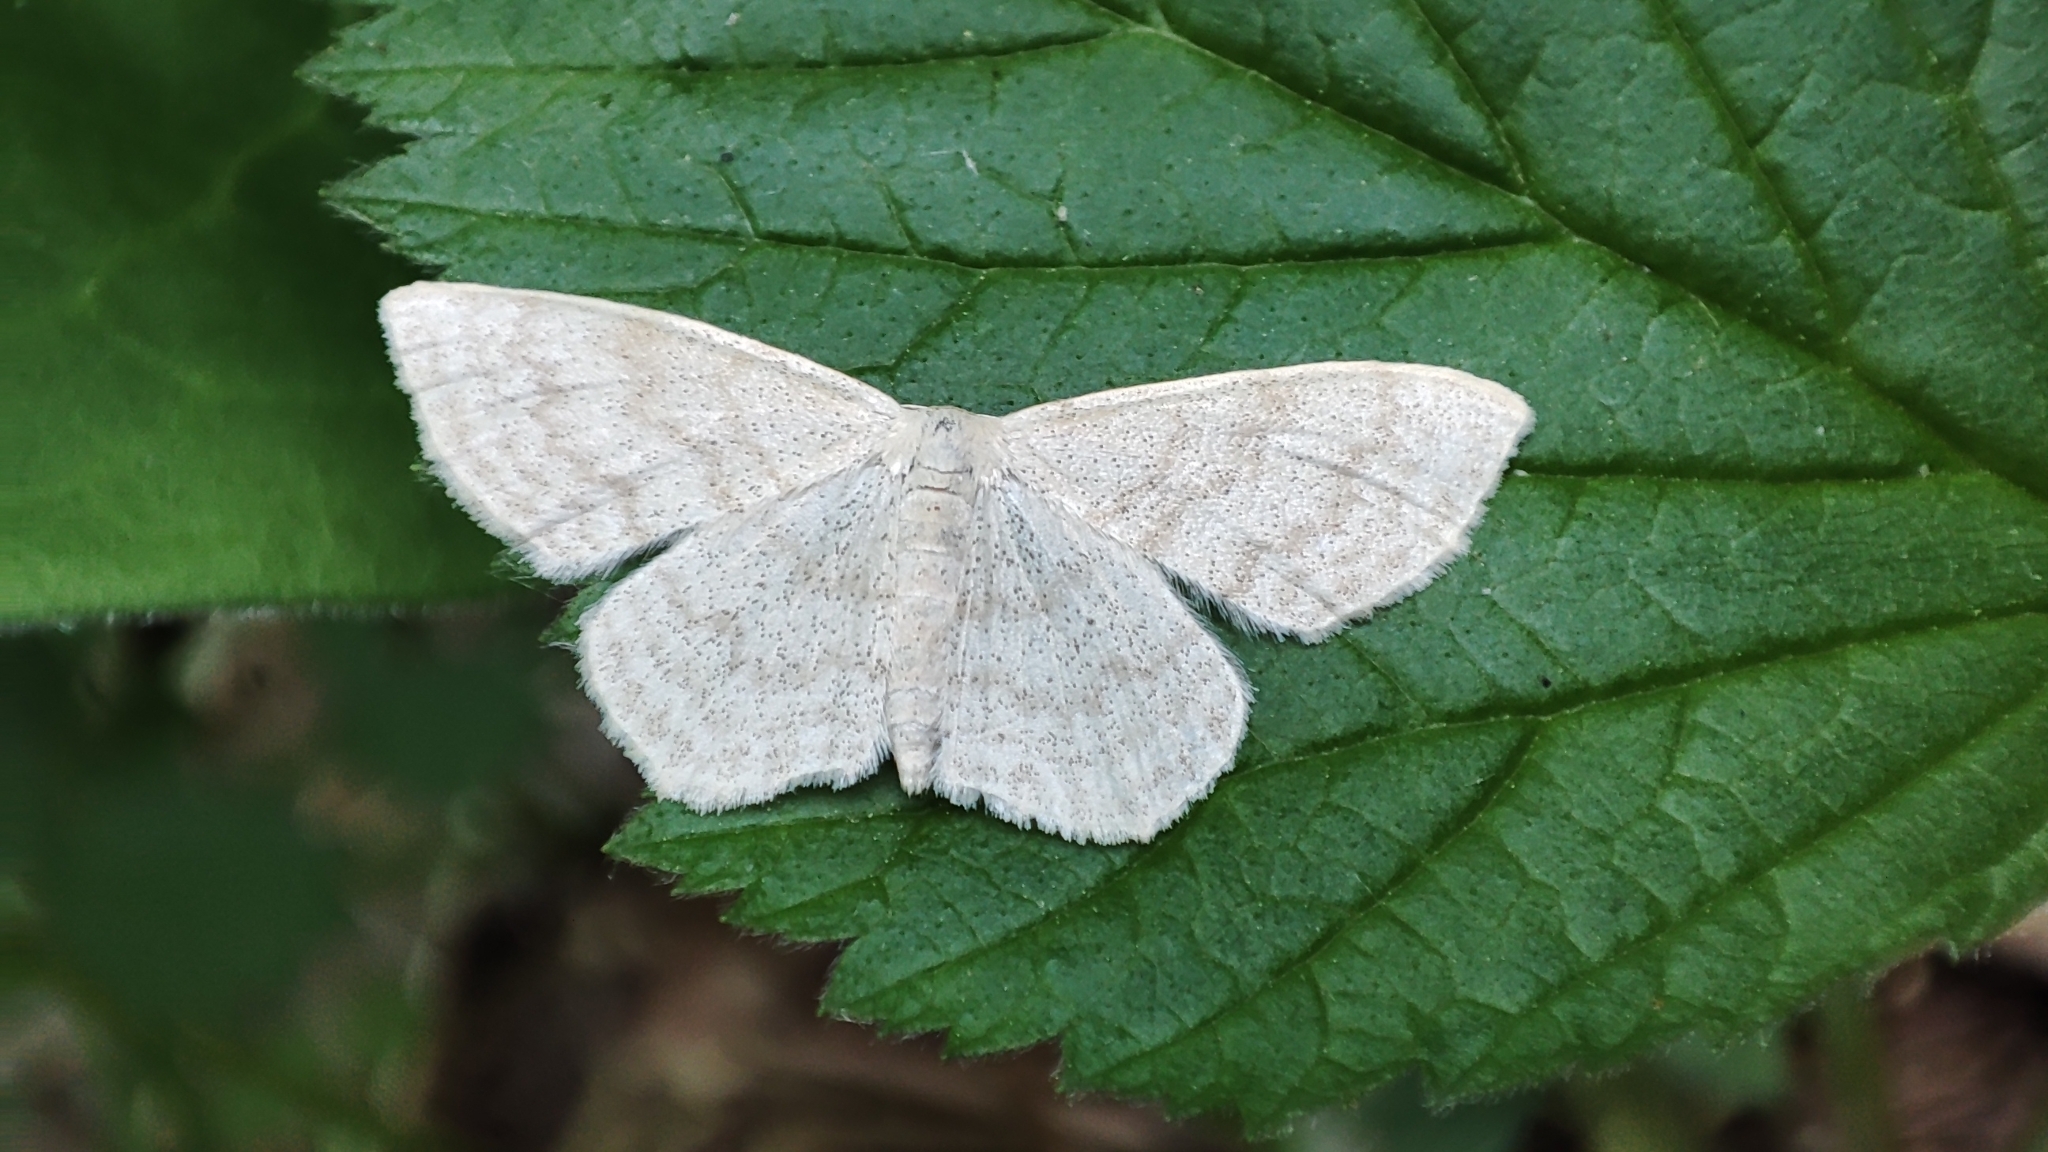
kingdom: Animalia
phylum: Arthropoda
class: Insecta
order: Lepidoptera
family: Geometridae
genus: Scopula
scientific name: Scopula floslactata
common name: Cream wave
